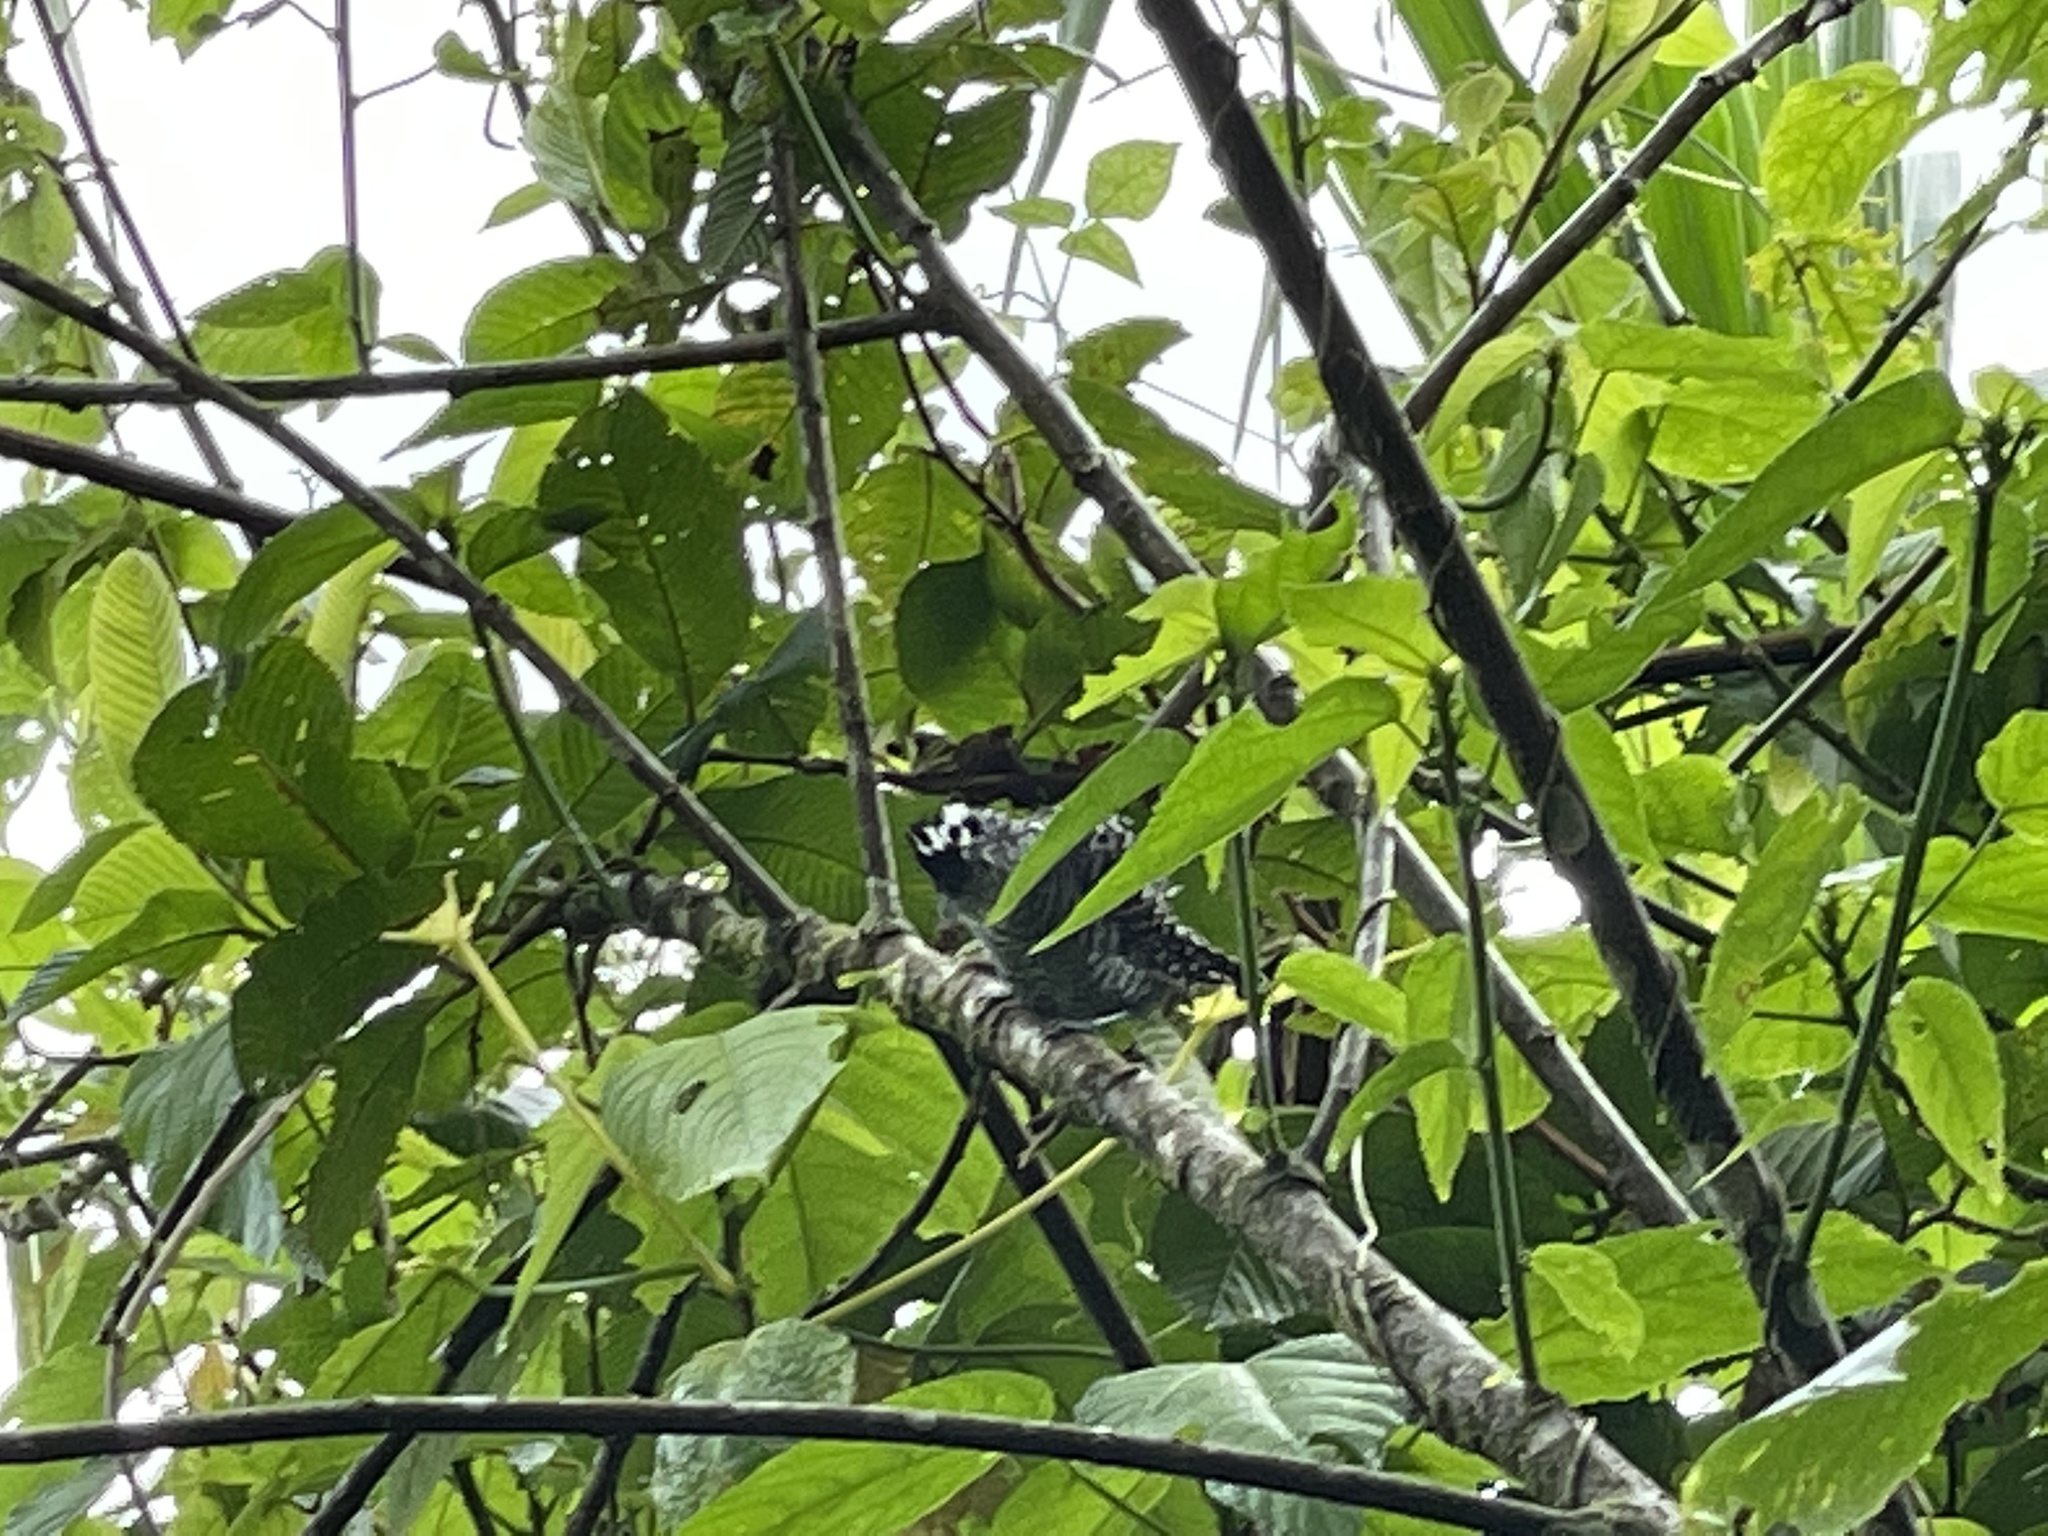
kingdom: Animalia
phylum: Chordata
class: Aves
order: Passeriformes
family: Thamnophilidae
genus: Thamnophilus
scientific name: Thamnophilus doliatus
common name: Barred antshrike
